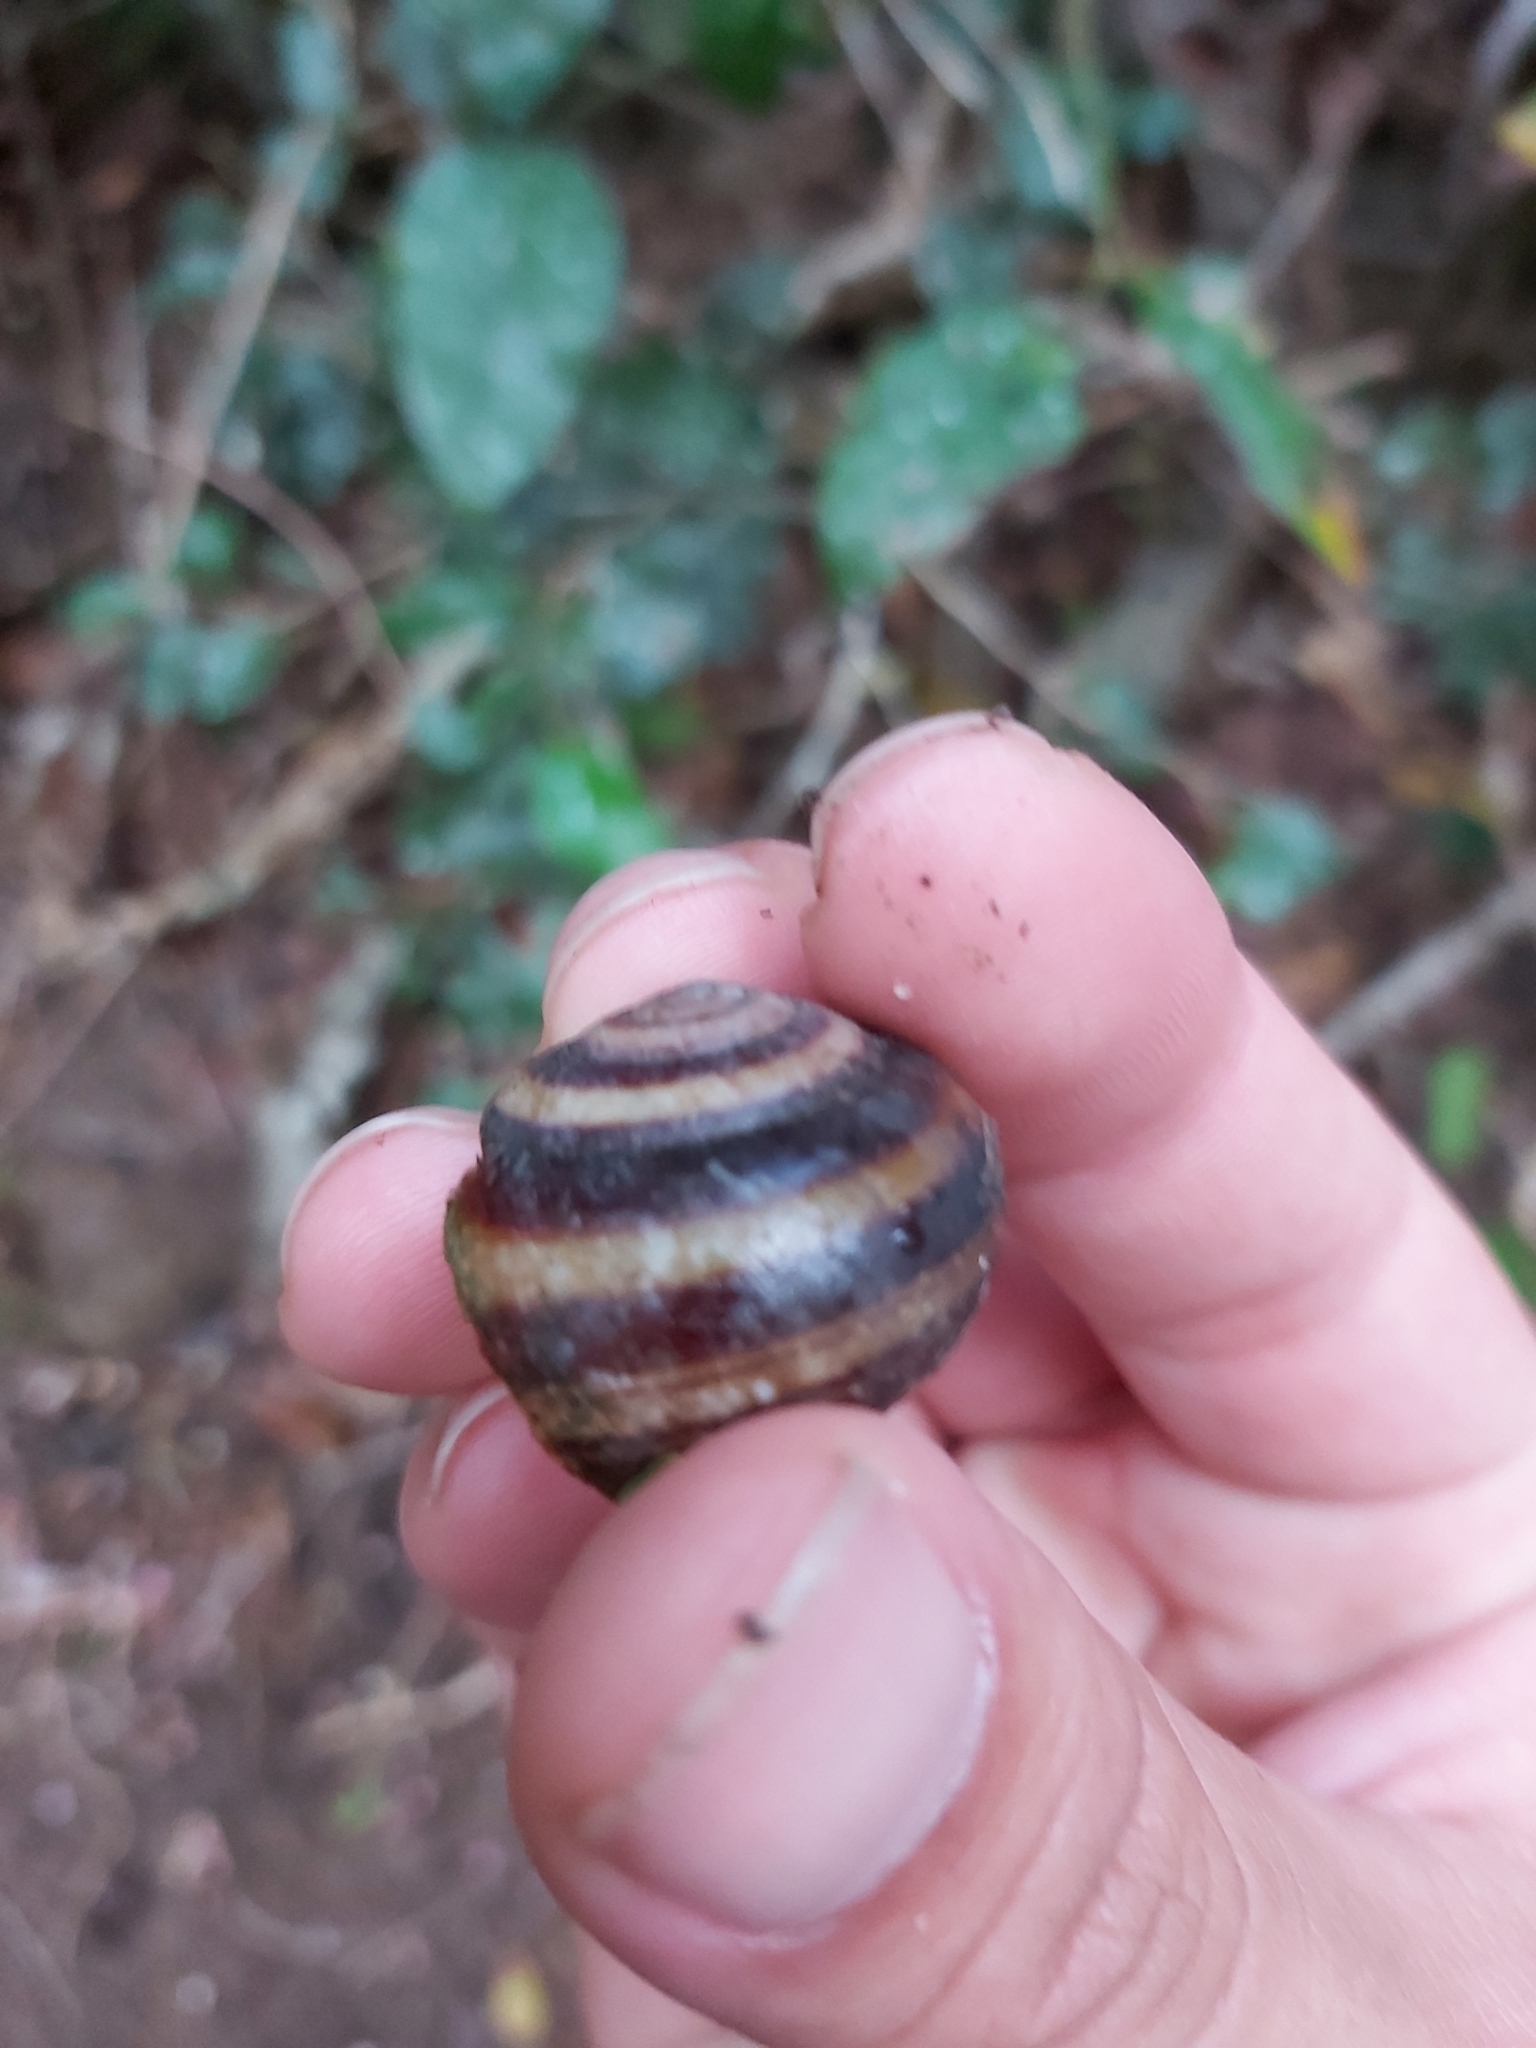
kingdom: Animalia
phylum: Mollusca
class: Gastropoda
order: Stylommatophora
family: Camaenidae
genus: Marilynessa
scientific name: Marilynessa yulei
